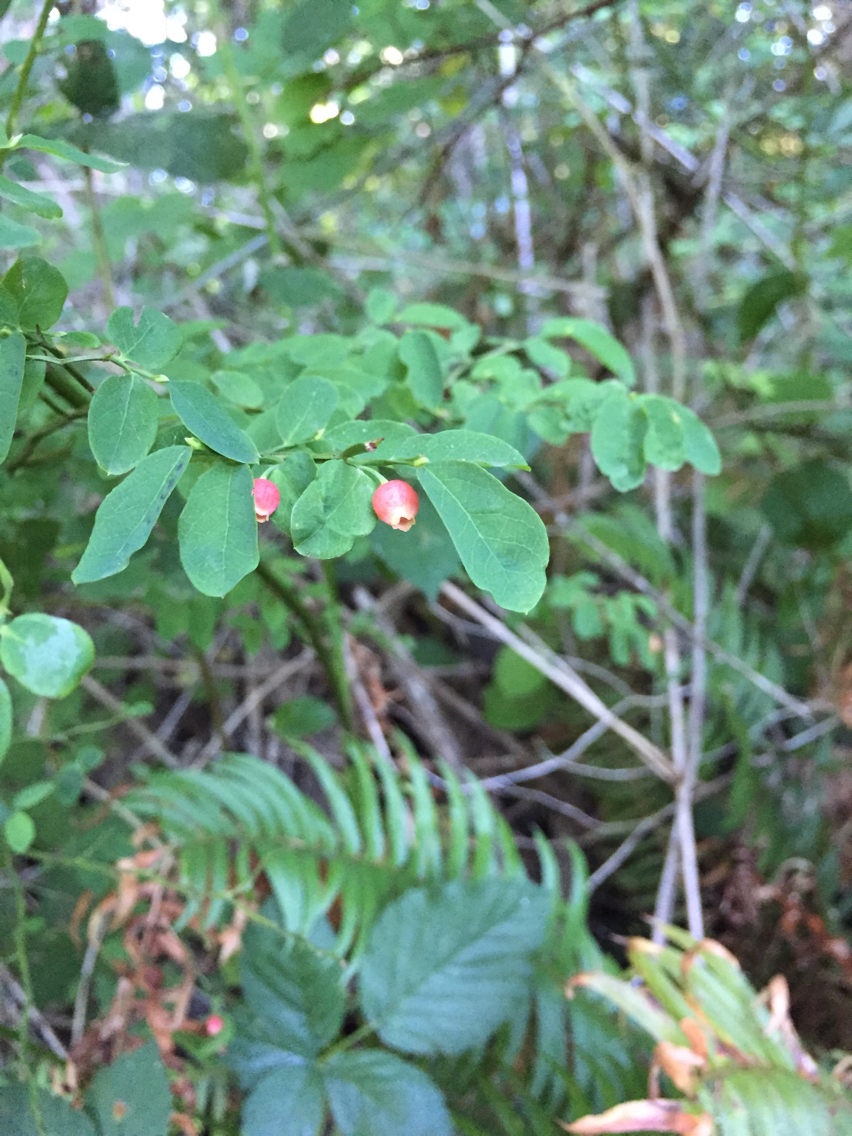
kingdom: Plantae
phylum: Tracheophyta
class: Magnoliopsida
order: Ericales
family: Ericaceae
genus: Vaccinium
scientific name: Vaccinium parvifolium
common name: Red-huckleberry
